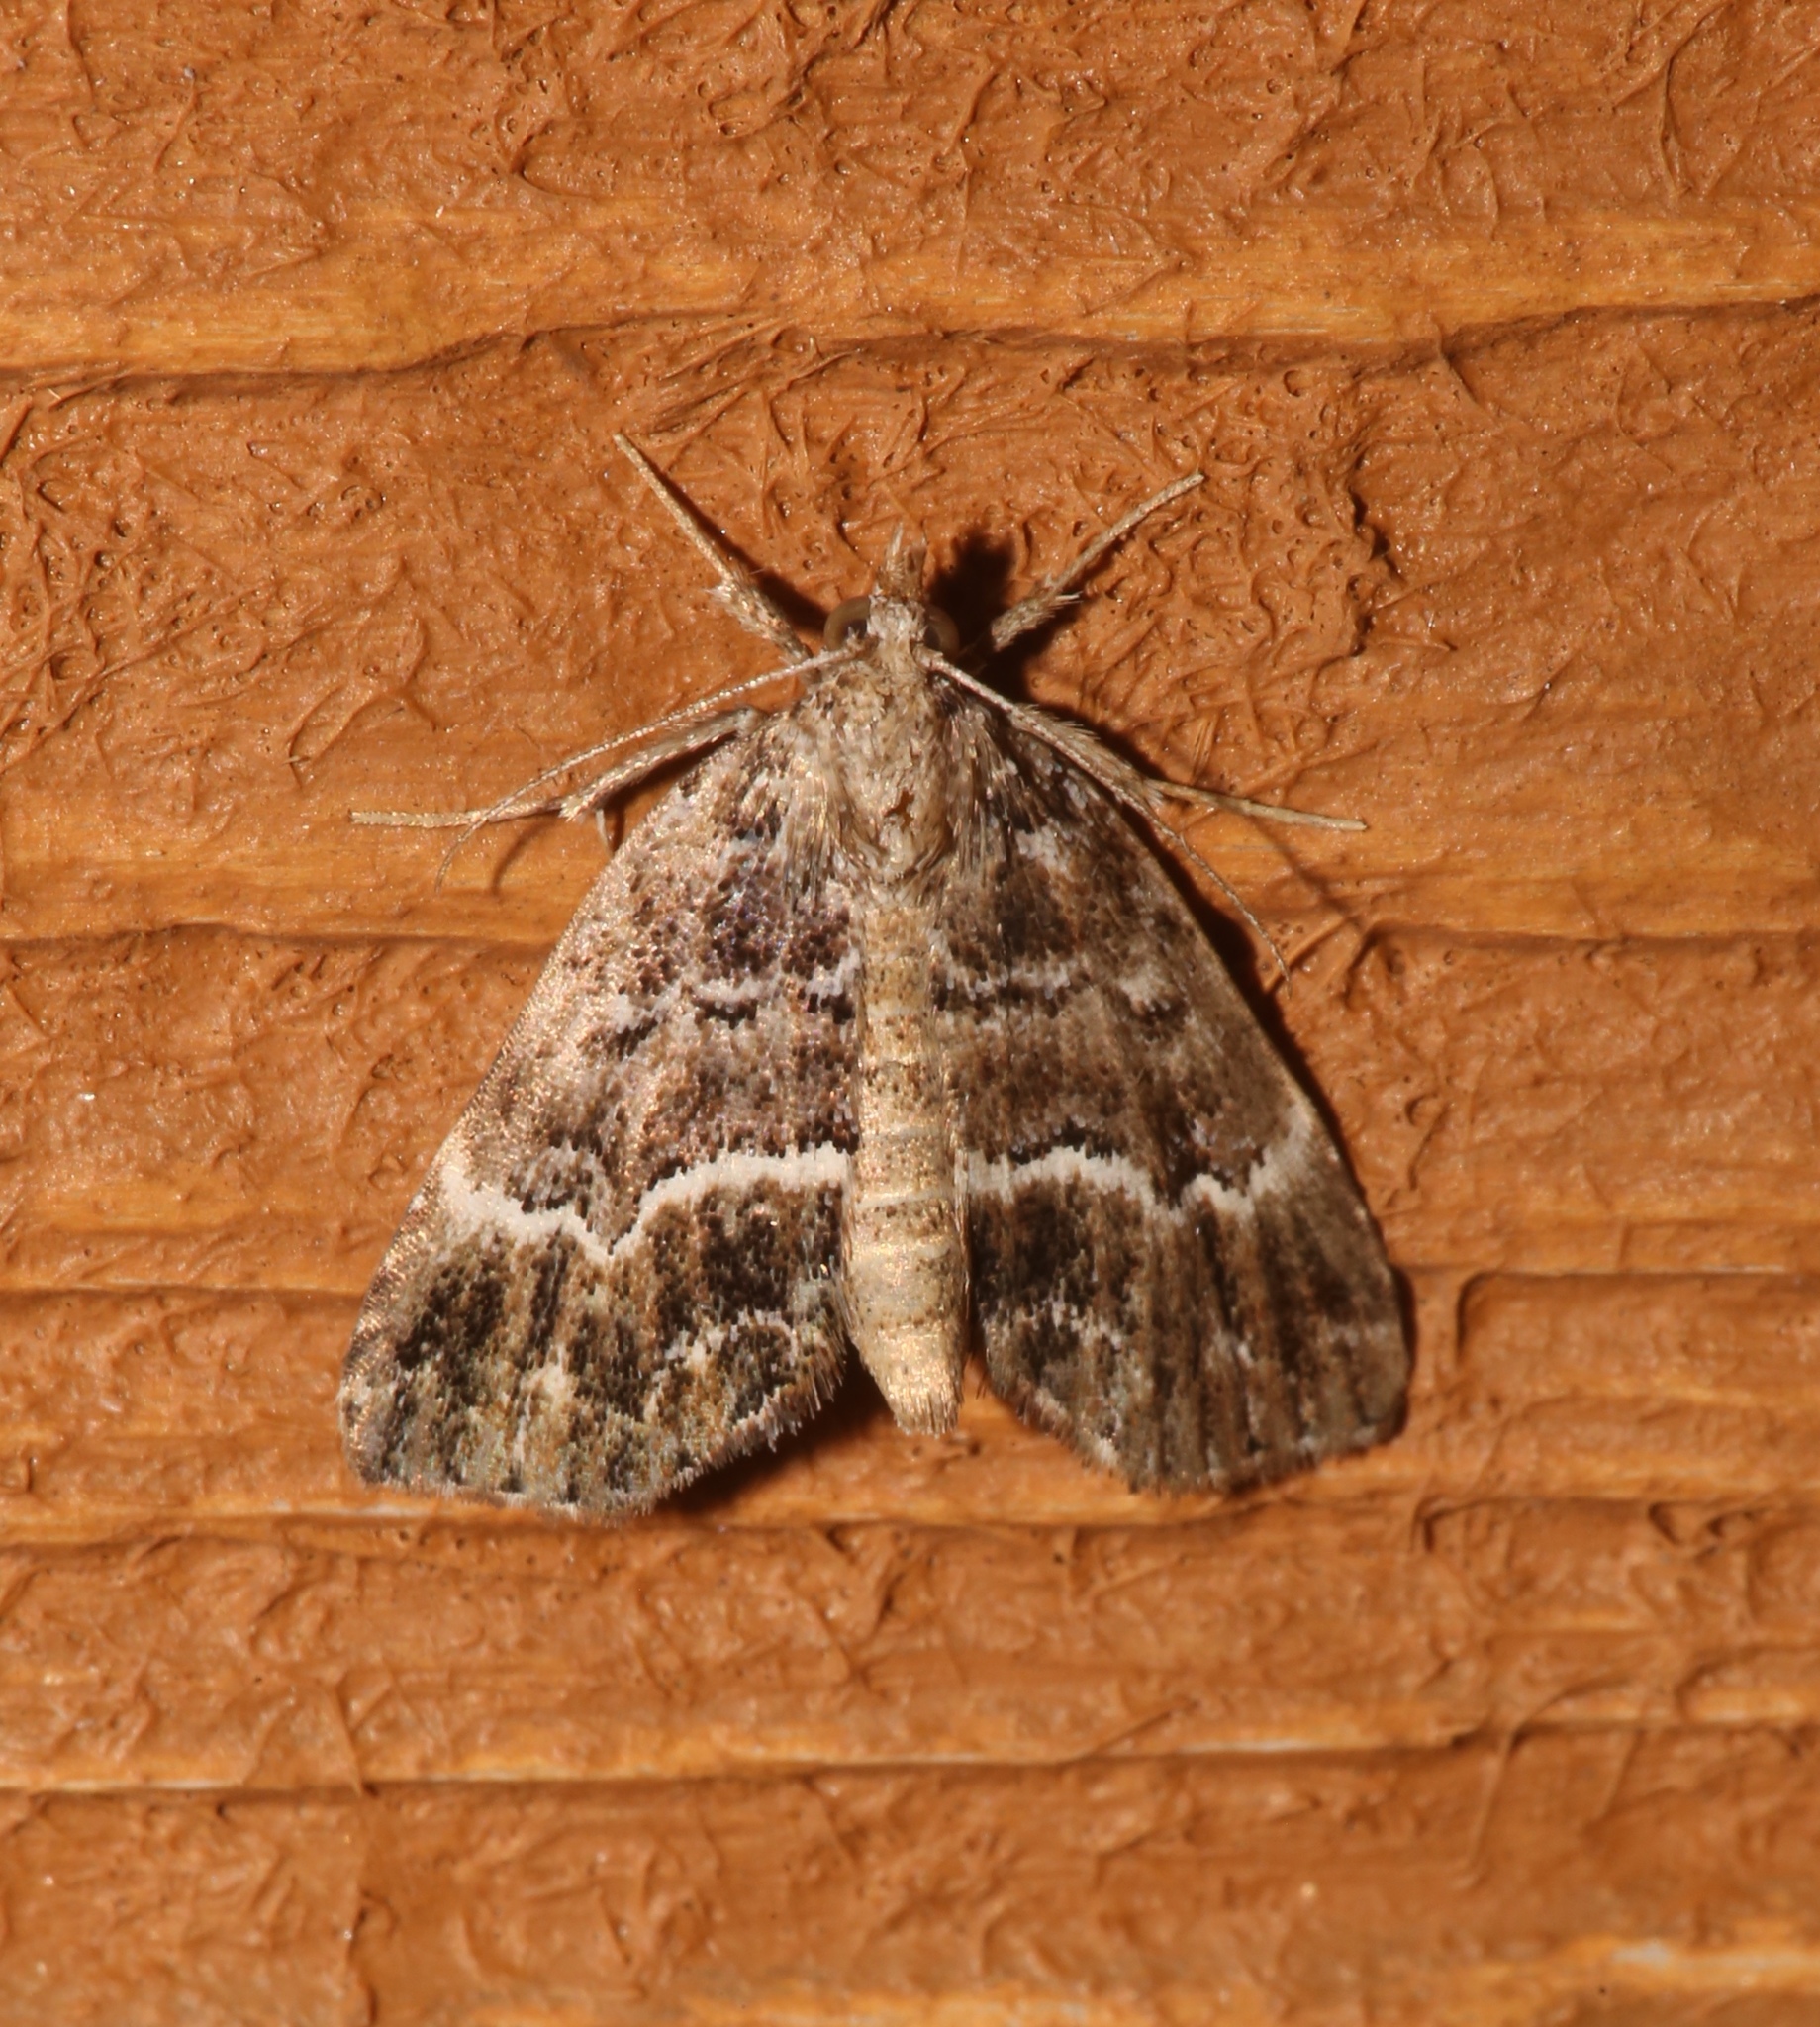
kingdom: Animalia
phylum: Arthropoda
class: Insecta
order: Lepidoptera
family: Erebidae
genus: Cutina
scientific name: Cutina arcuata
